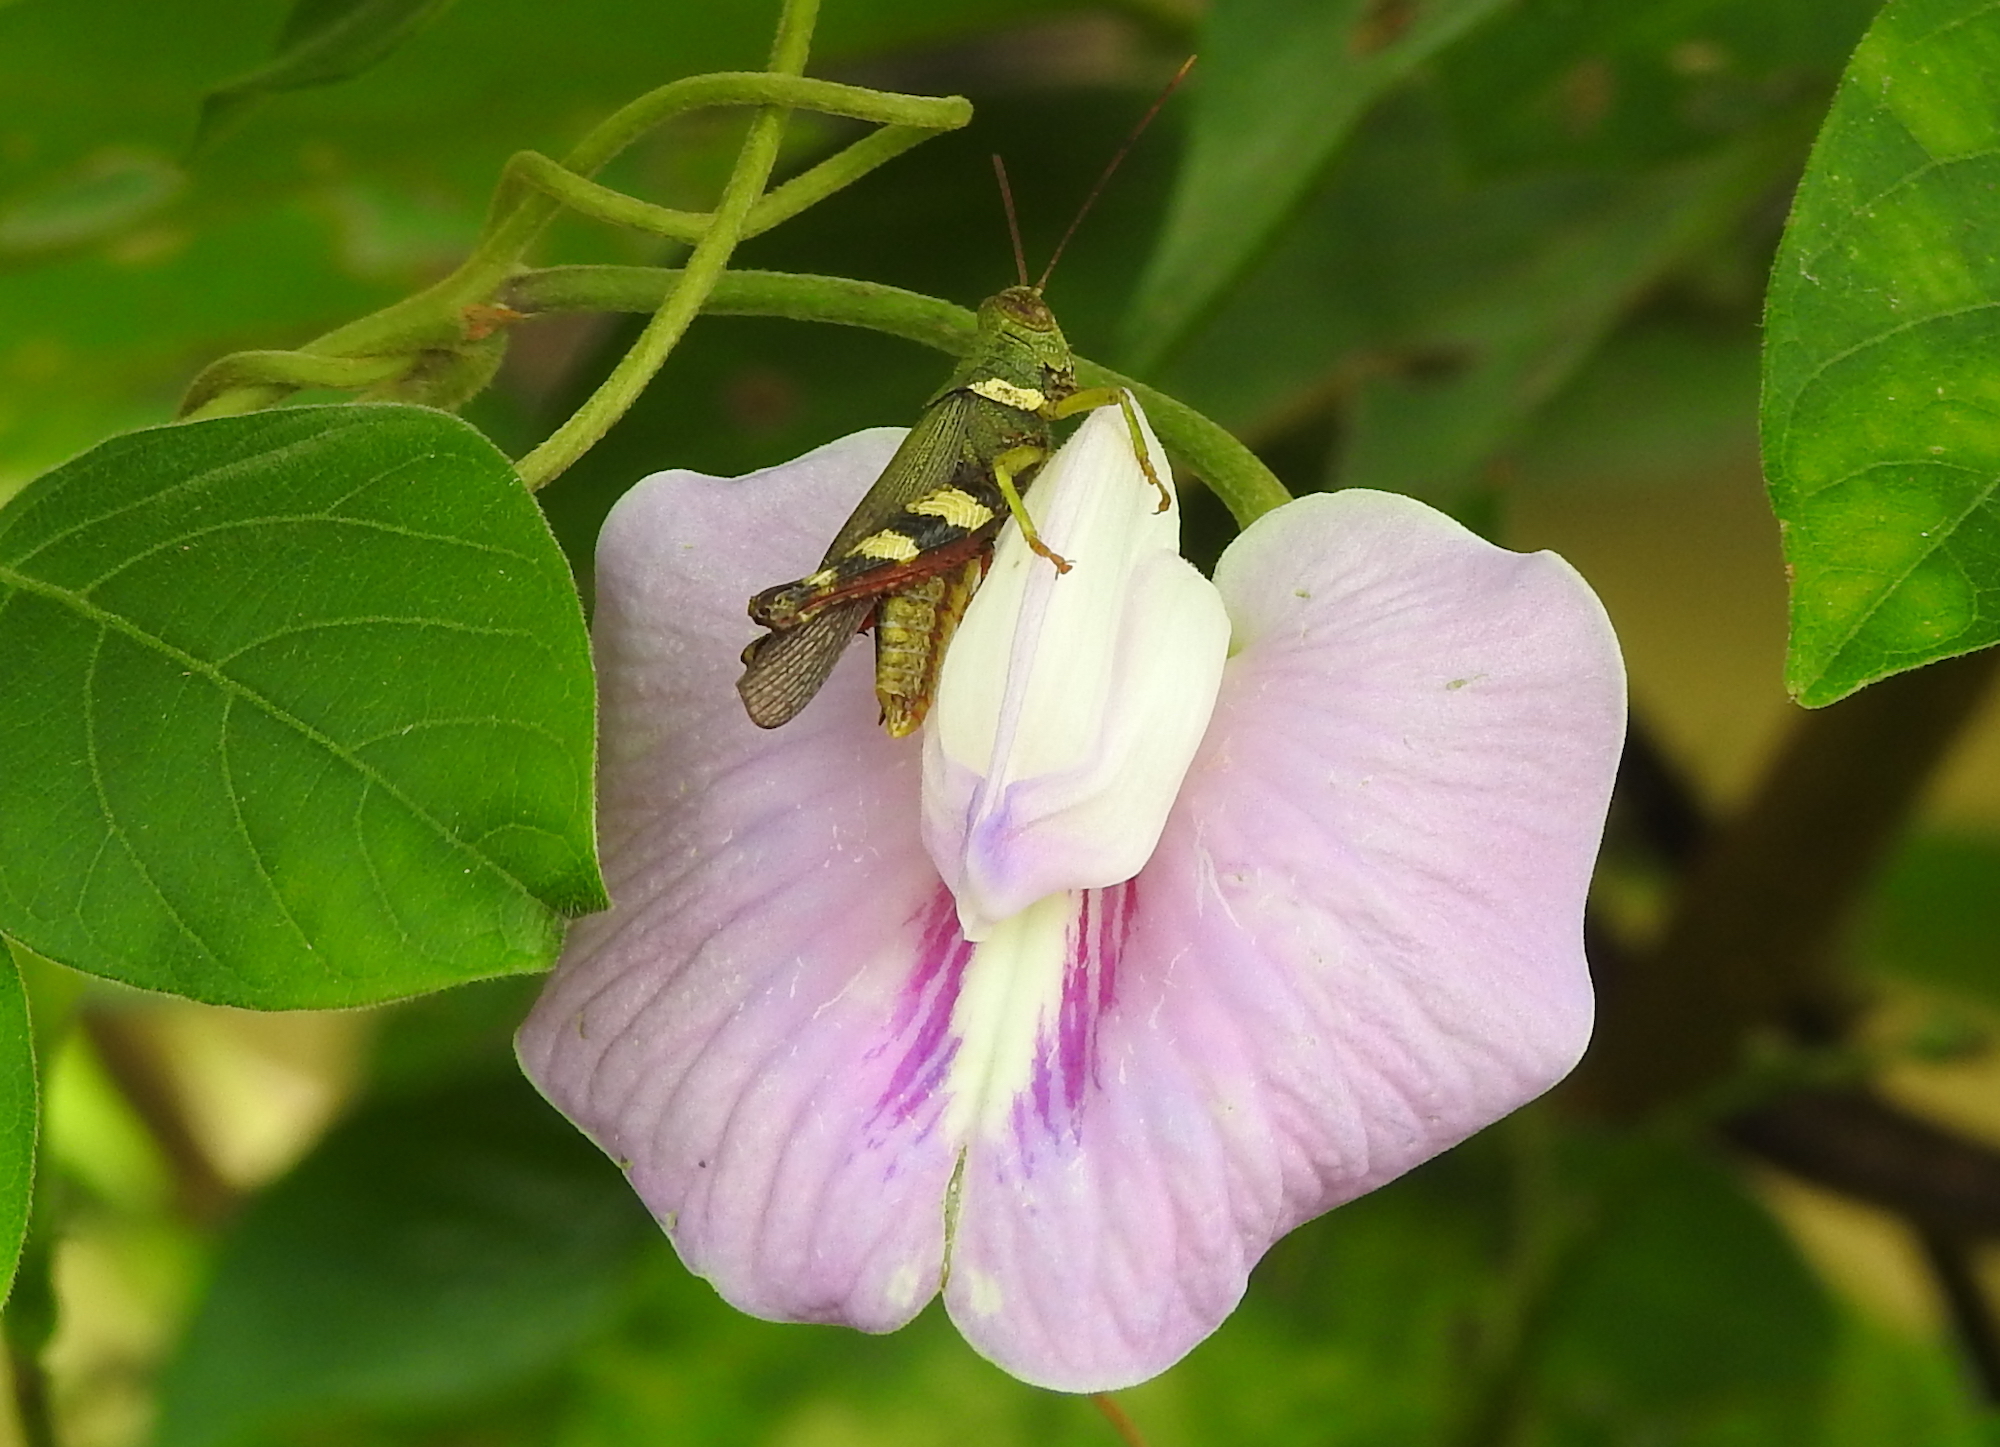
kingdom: Animalia
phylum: Arthropoda
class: Insecta
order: Orthoptera
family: Acrididae
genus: Apalacris
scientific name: Apalacris varicornis
